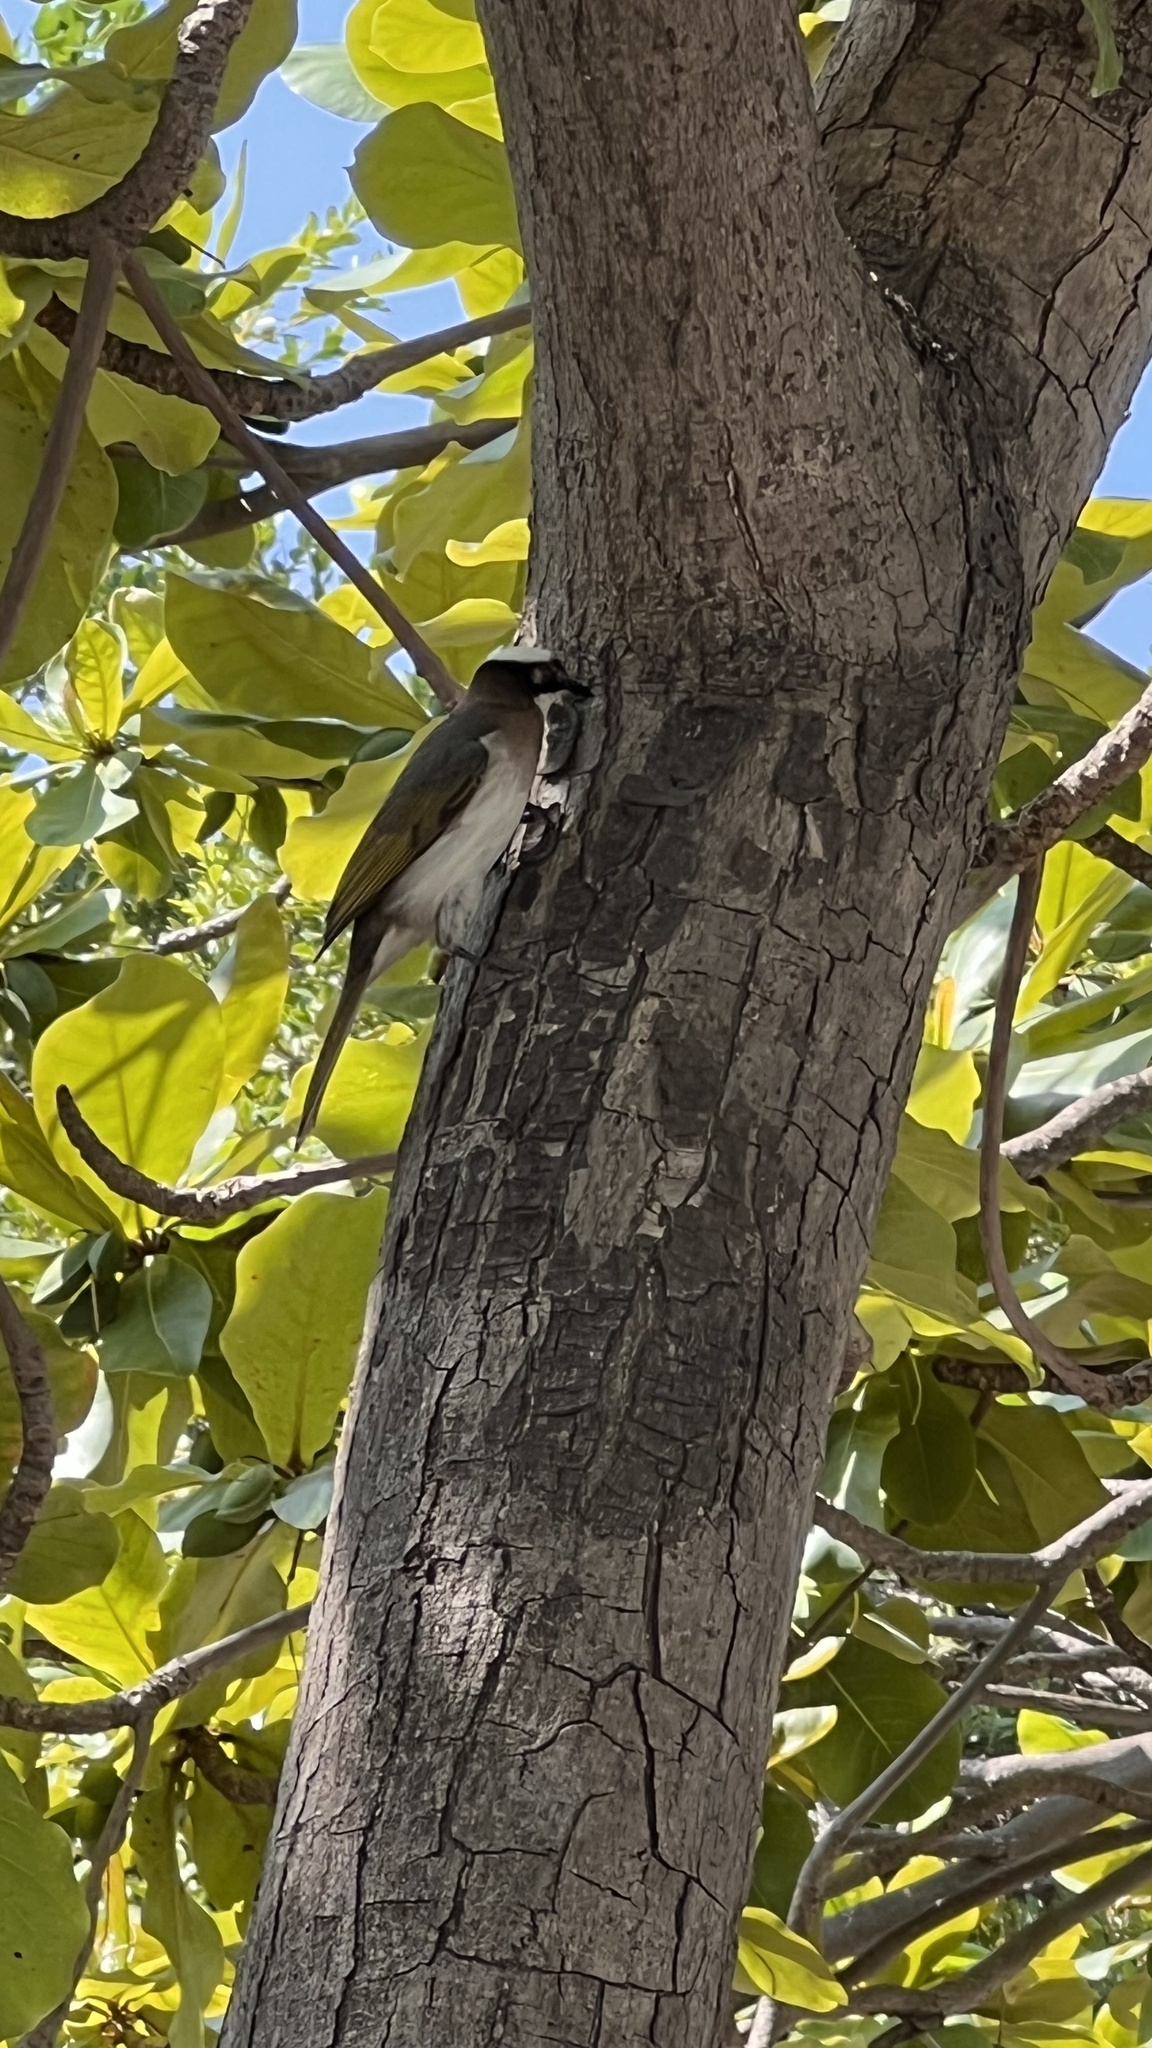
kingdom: Animalia
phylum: Chordata
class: Aves
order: Passeriformes
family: Pycnonotidae
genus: Pycnonotus
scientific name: Pycnonotus sinensis
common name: Light-vented bulbul
